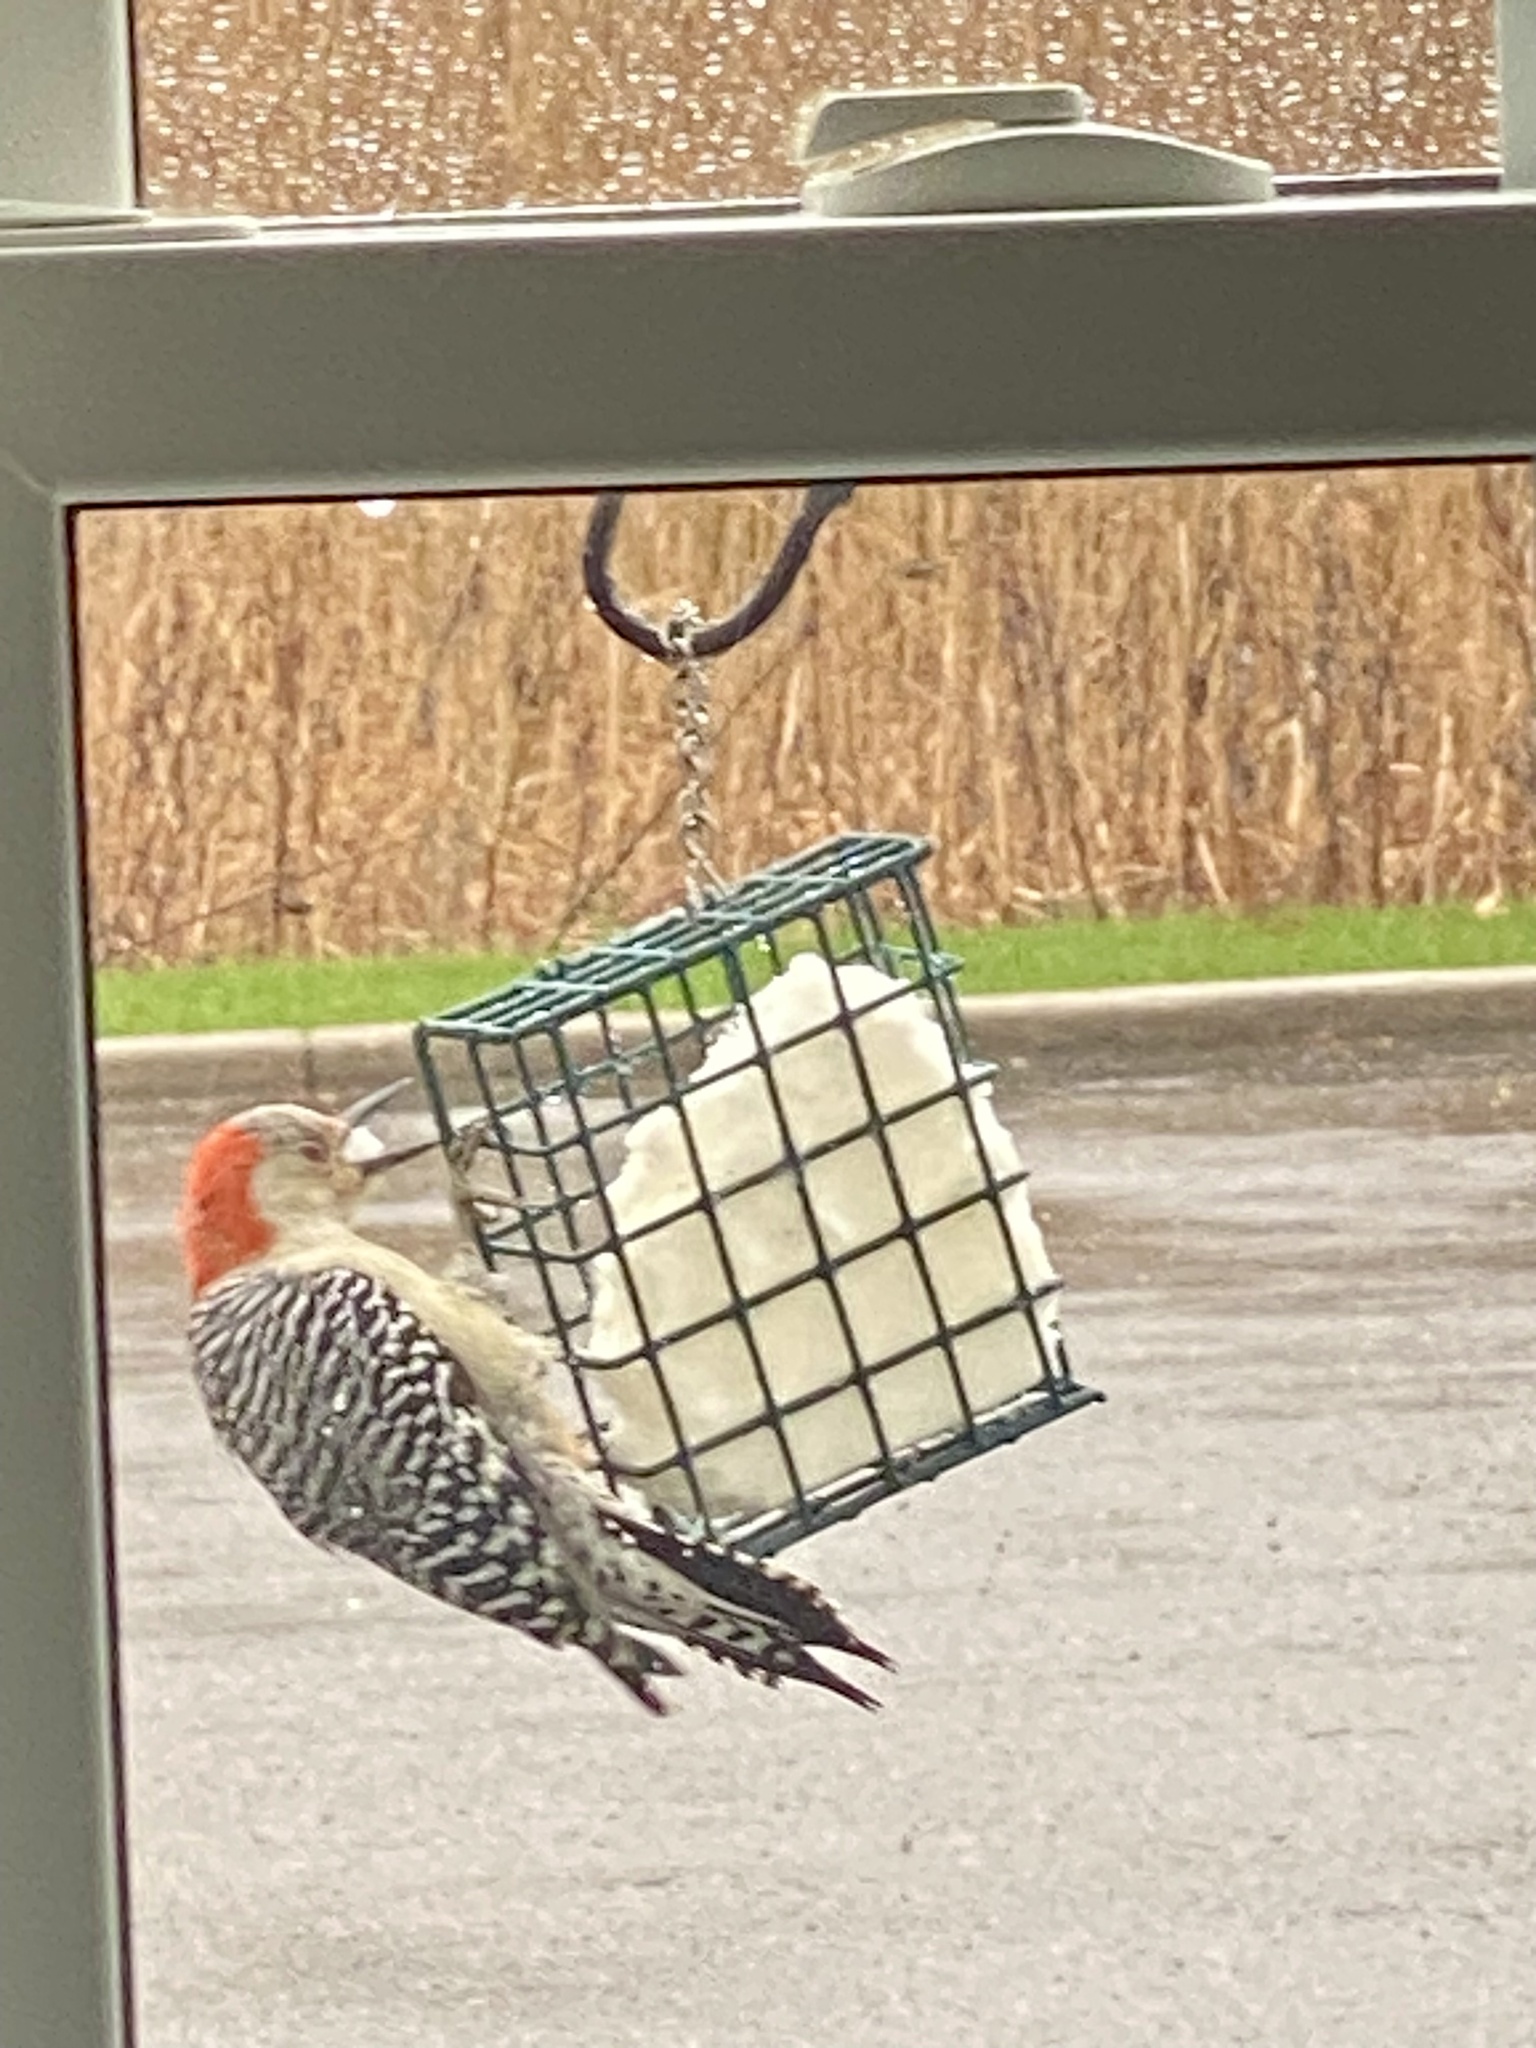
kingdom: Animalia
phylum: Chordata
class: Aves
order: Piciformes
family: Picidae
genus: Melanerpes
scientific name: Melanerpes carolinus
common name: Red-bellied woodpecker
